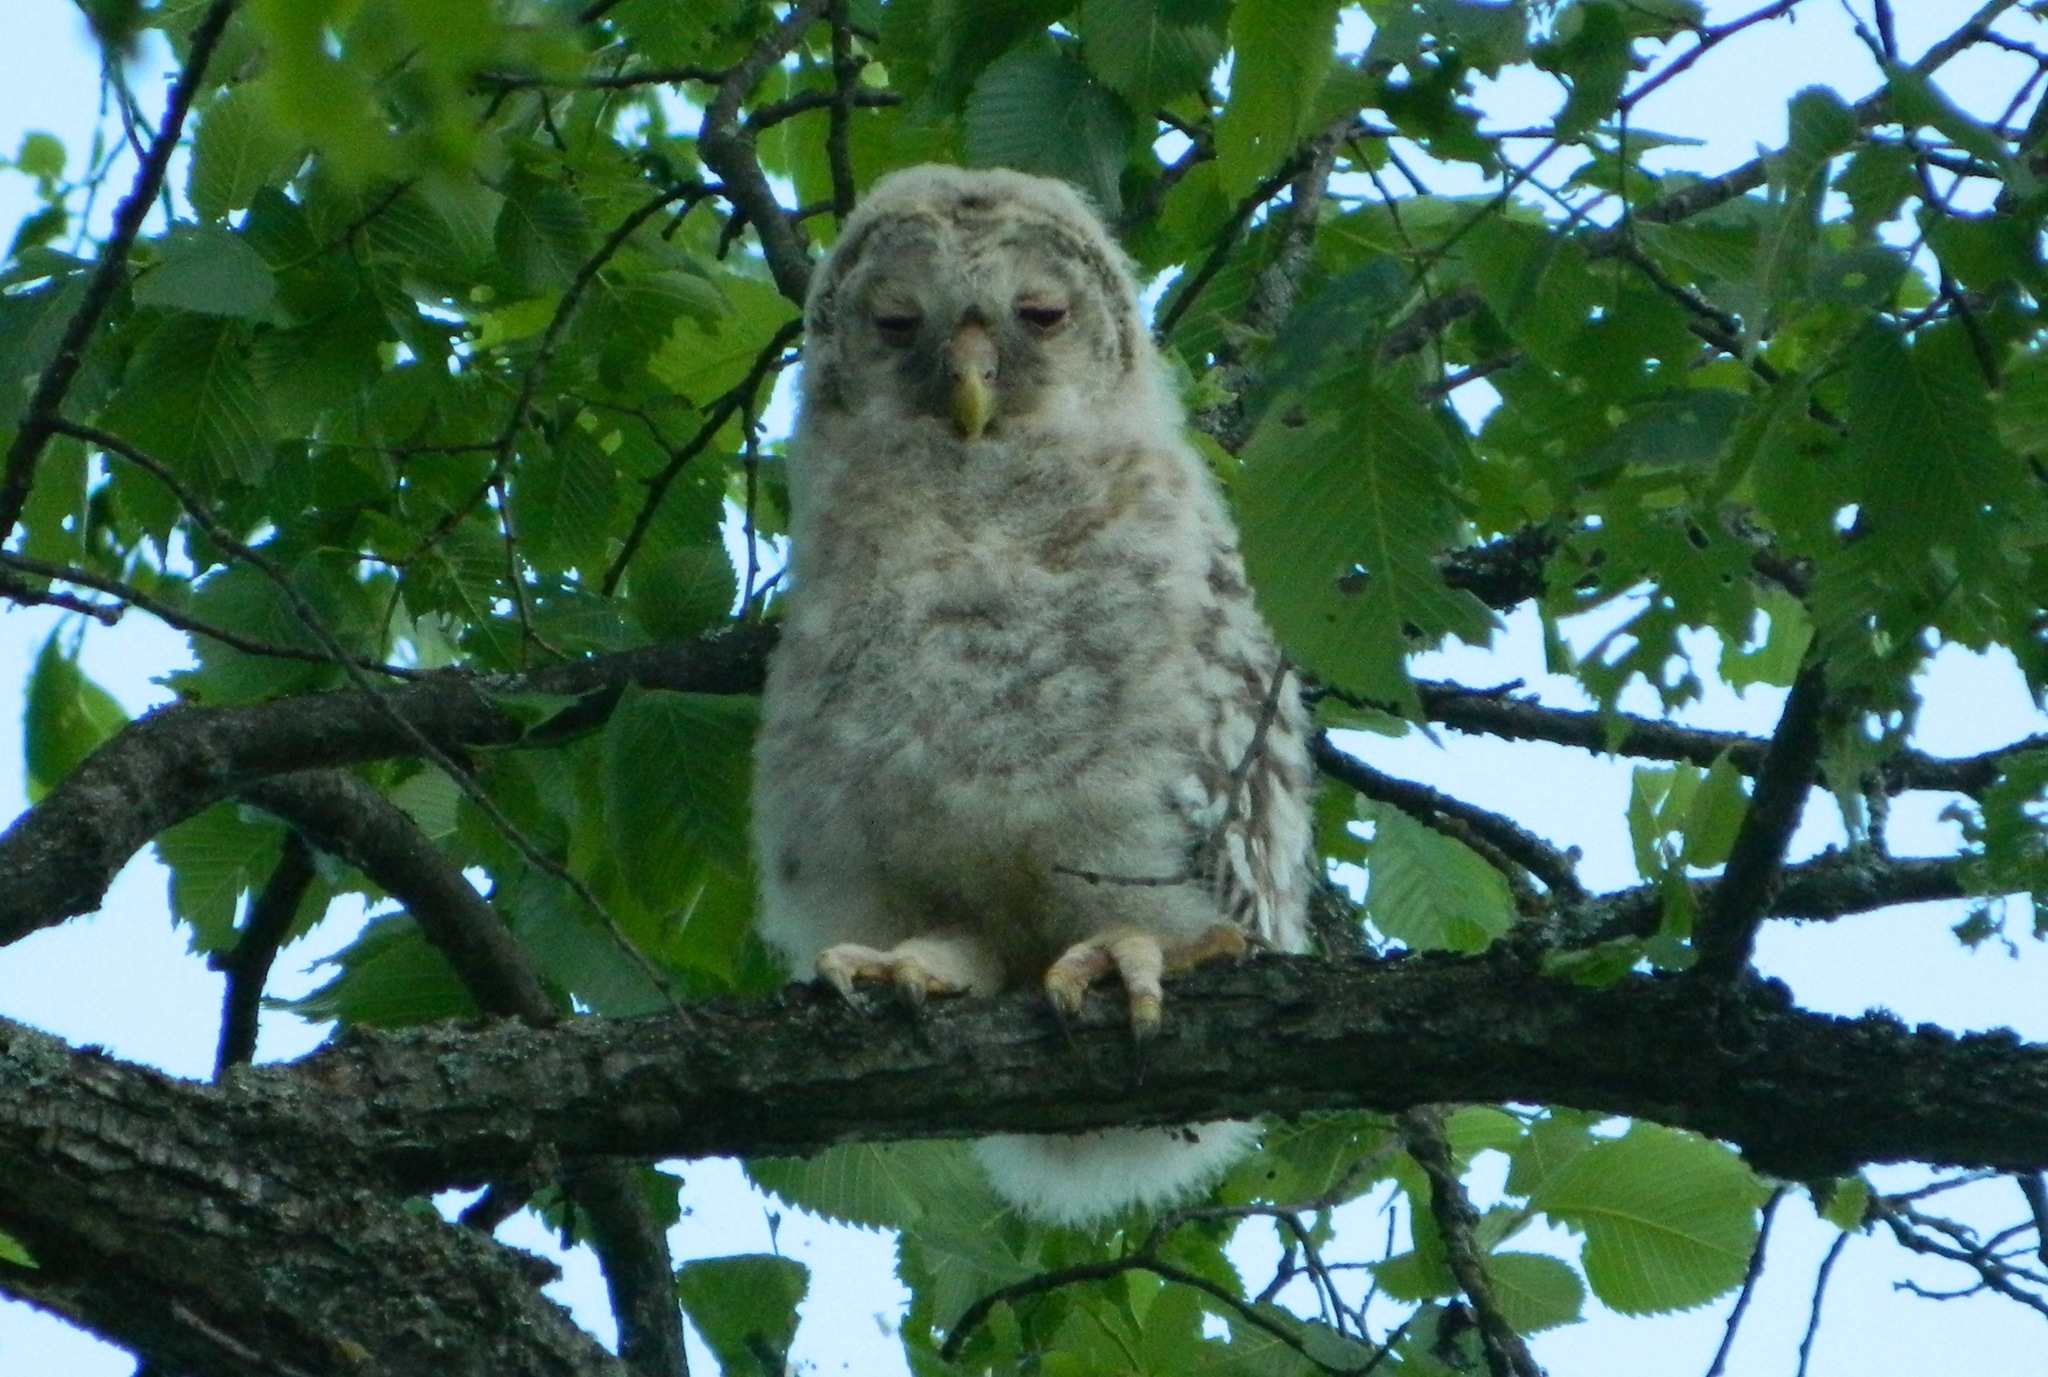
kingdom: Animalia
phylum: Chordata
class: Aves
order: Strigiformes
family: Strigidae
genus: Strix
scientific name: Strix uralensis
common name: Ural owl
